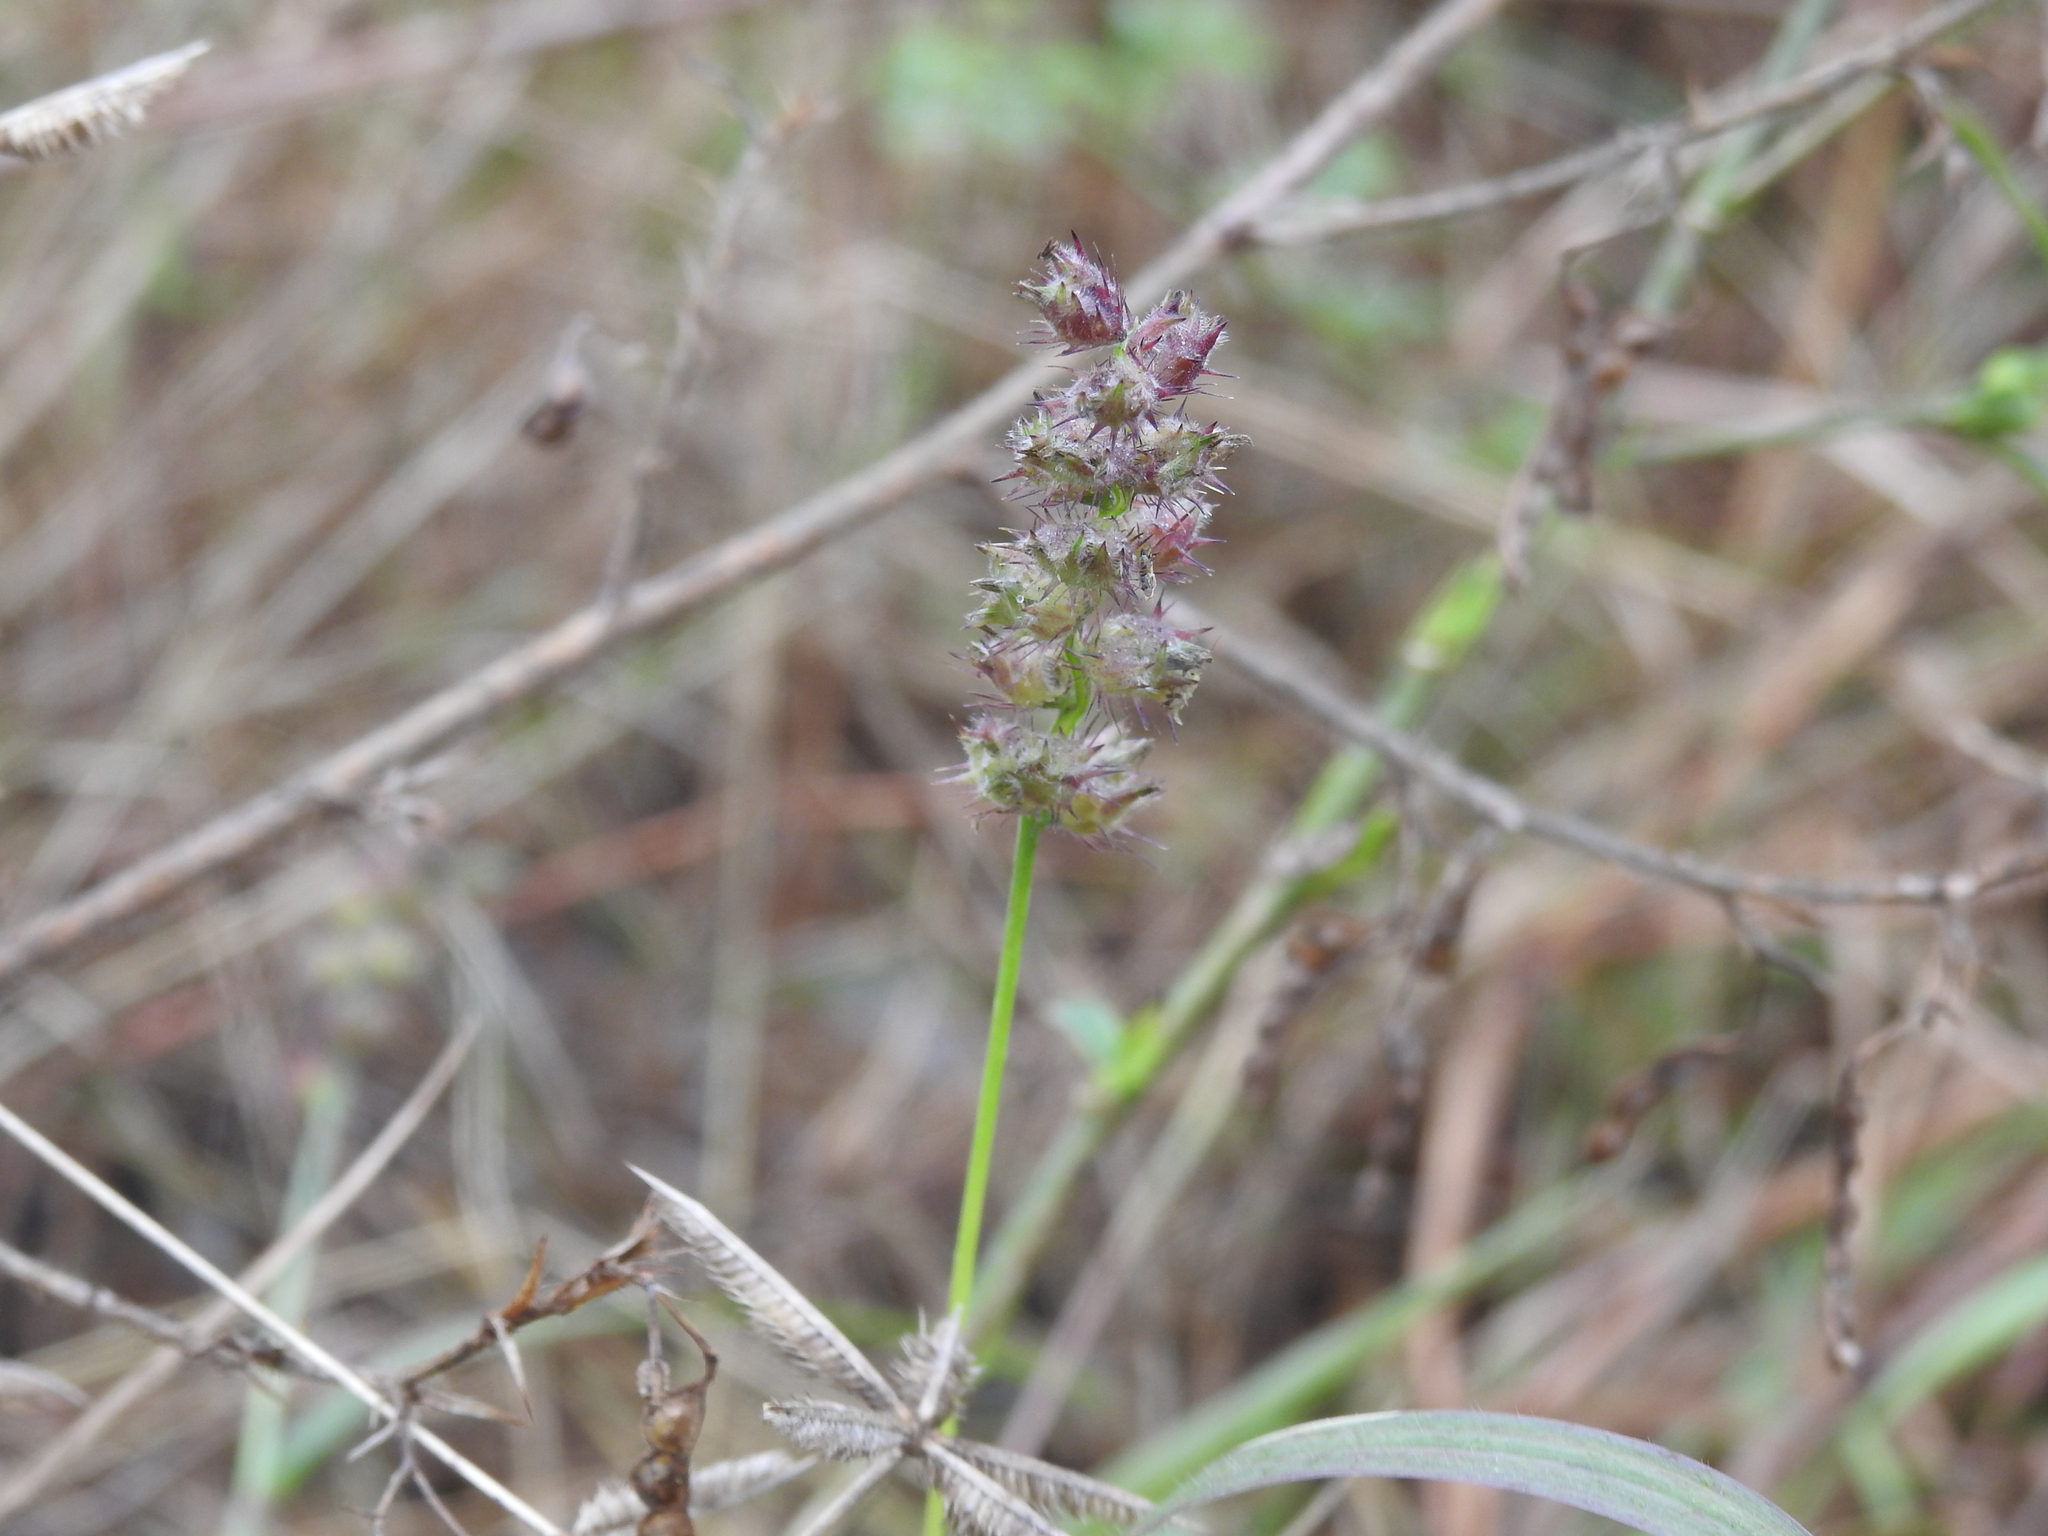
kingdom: Plantae
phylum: Tracheophyta
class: Liliopsida
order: Poales
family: Poaceae
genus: Cenchrus
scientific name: Cenchrus echinatus
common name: Southern sandbur
